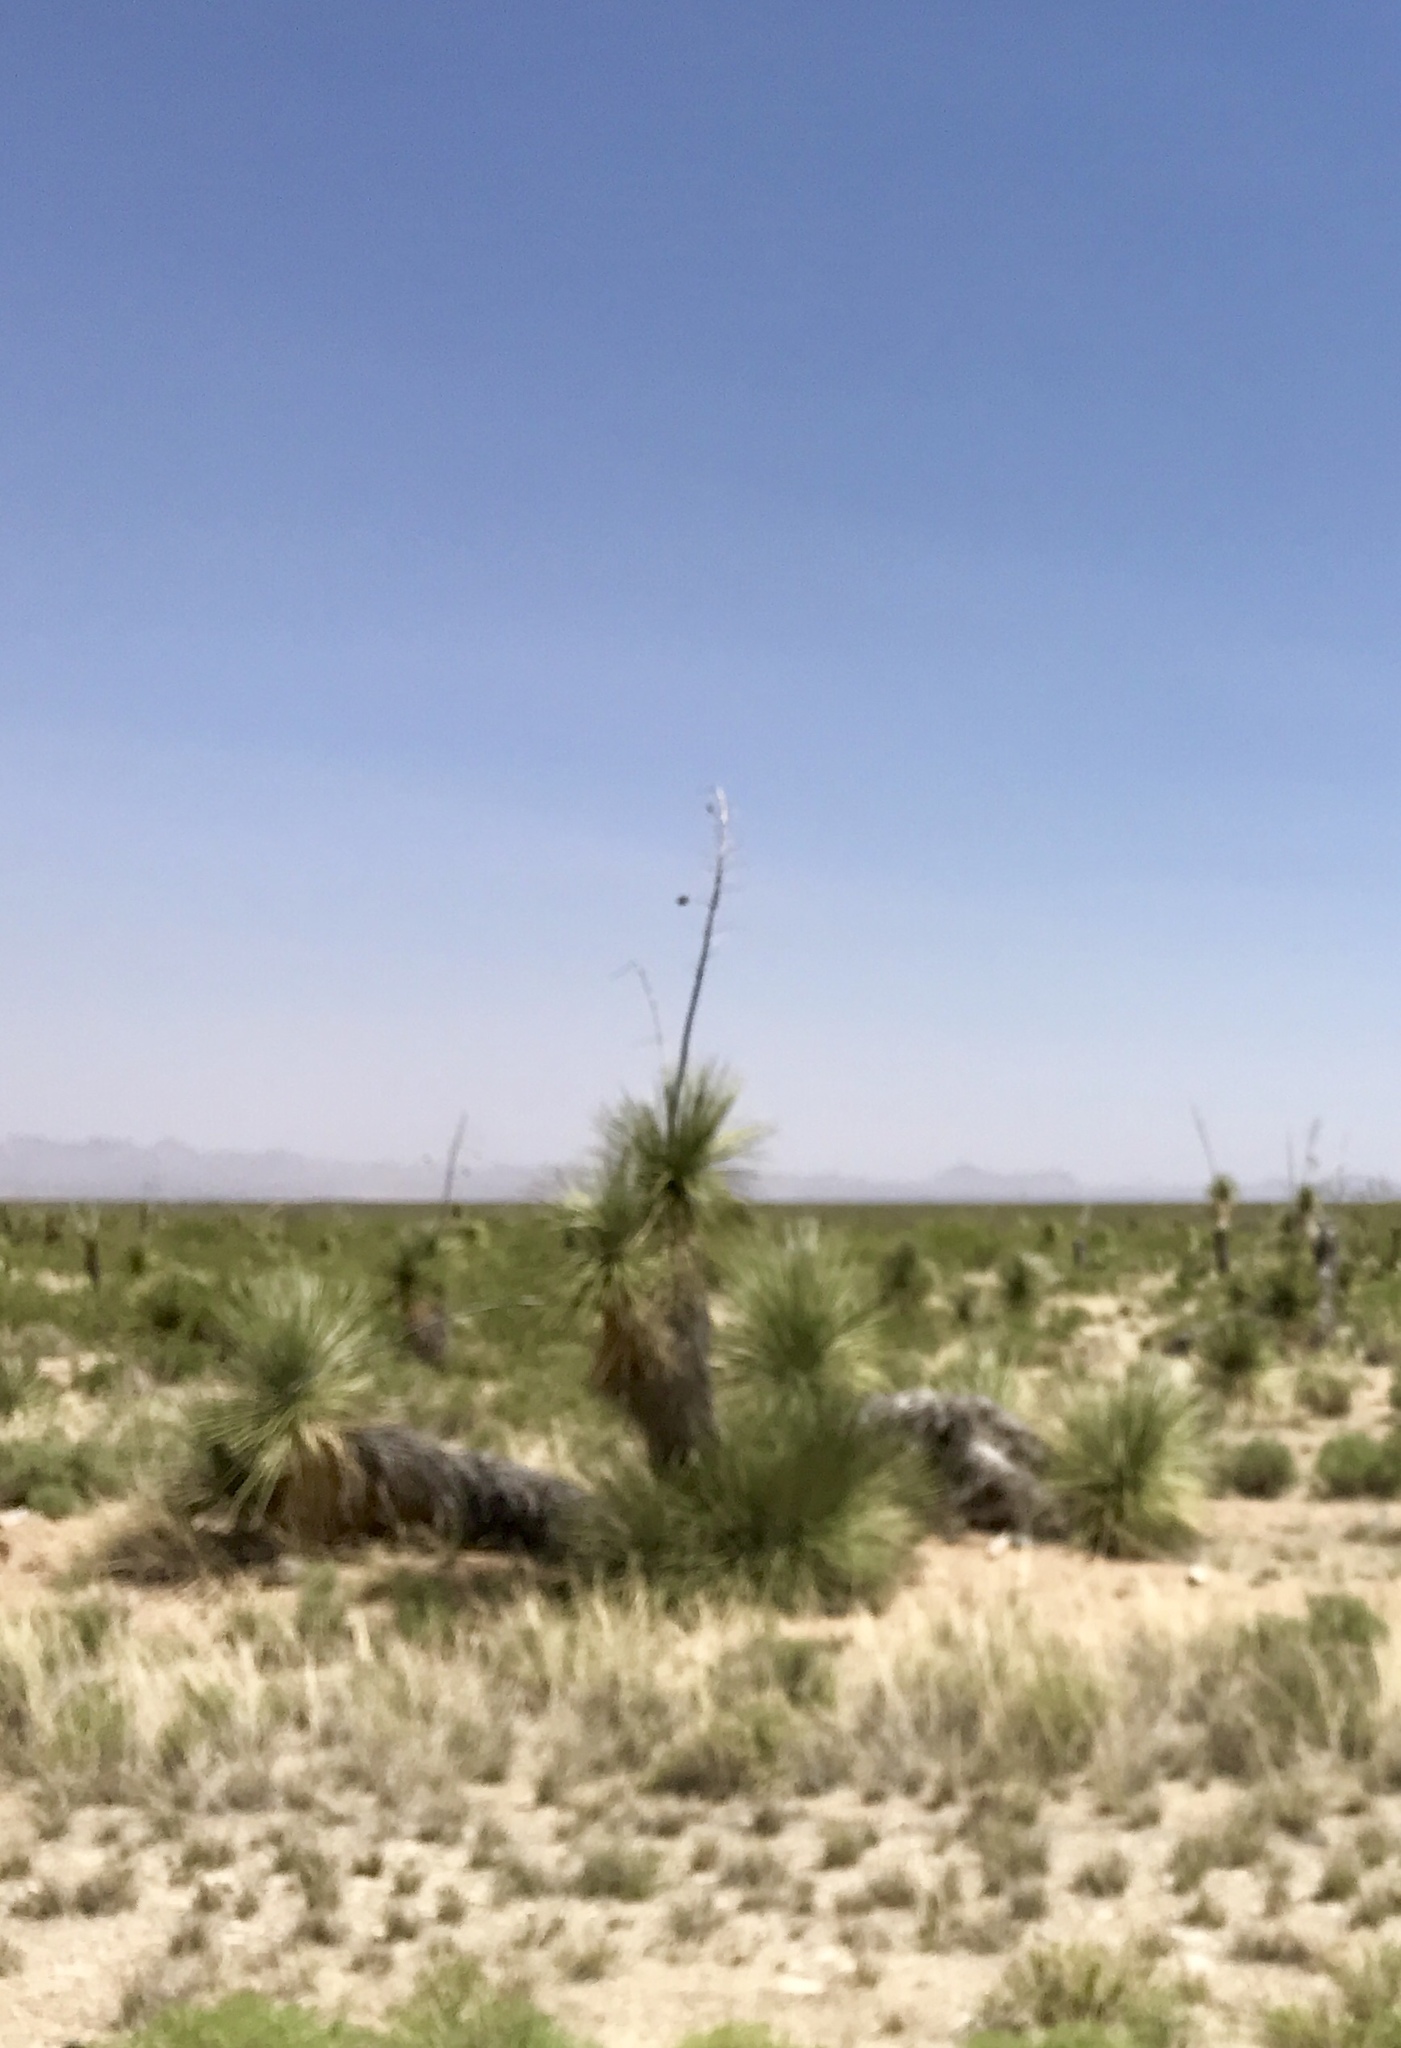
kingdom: Plantae
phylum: Tracheophyta
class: Liliopsida
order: Asparagales
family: Asparagaceae
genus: Yucca
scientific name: Yucca elata
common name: Palmella
